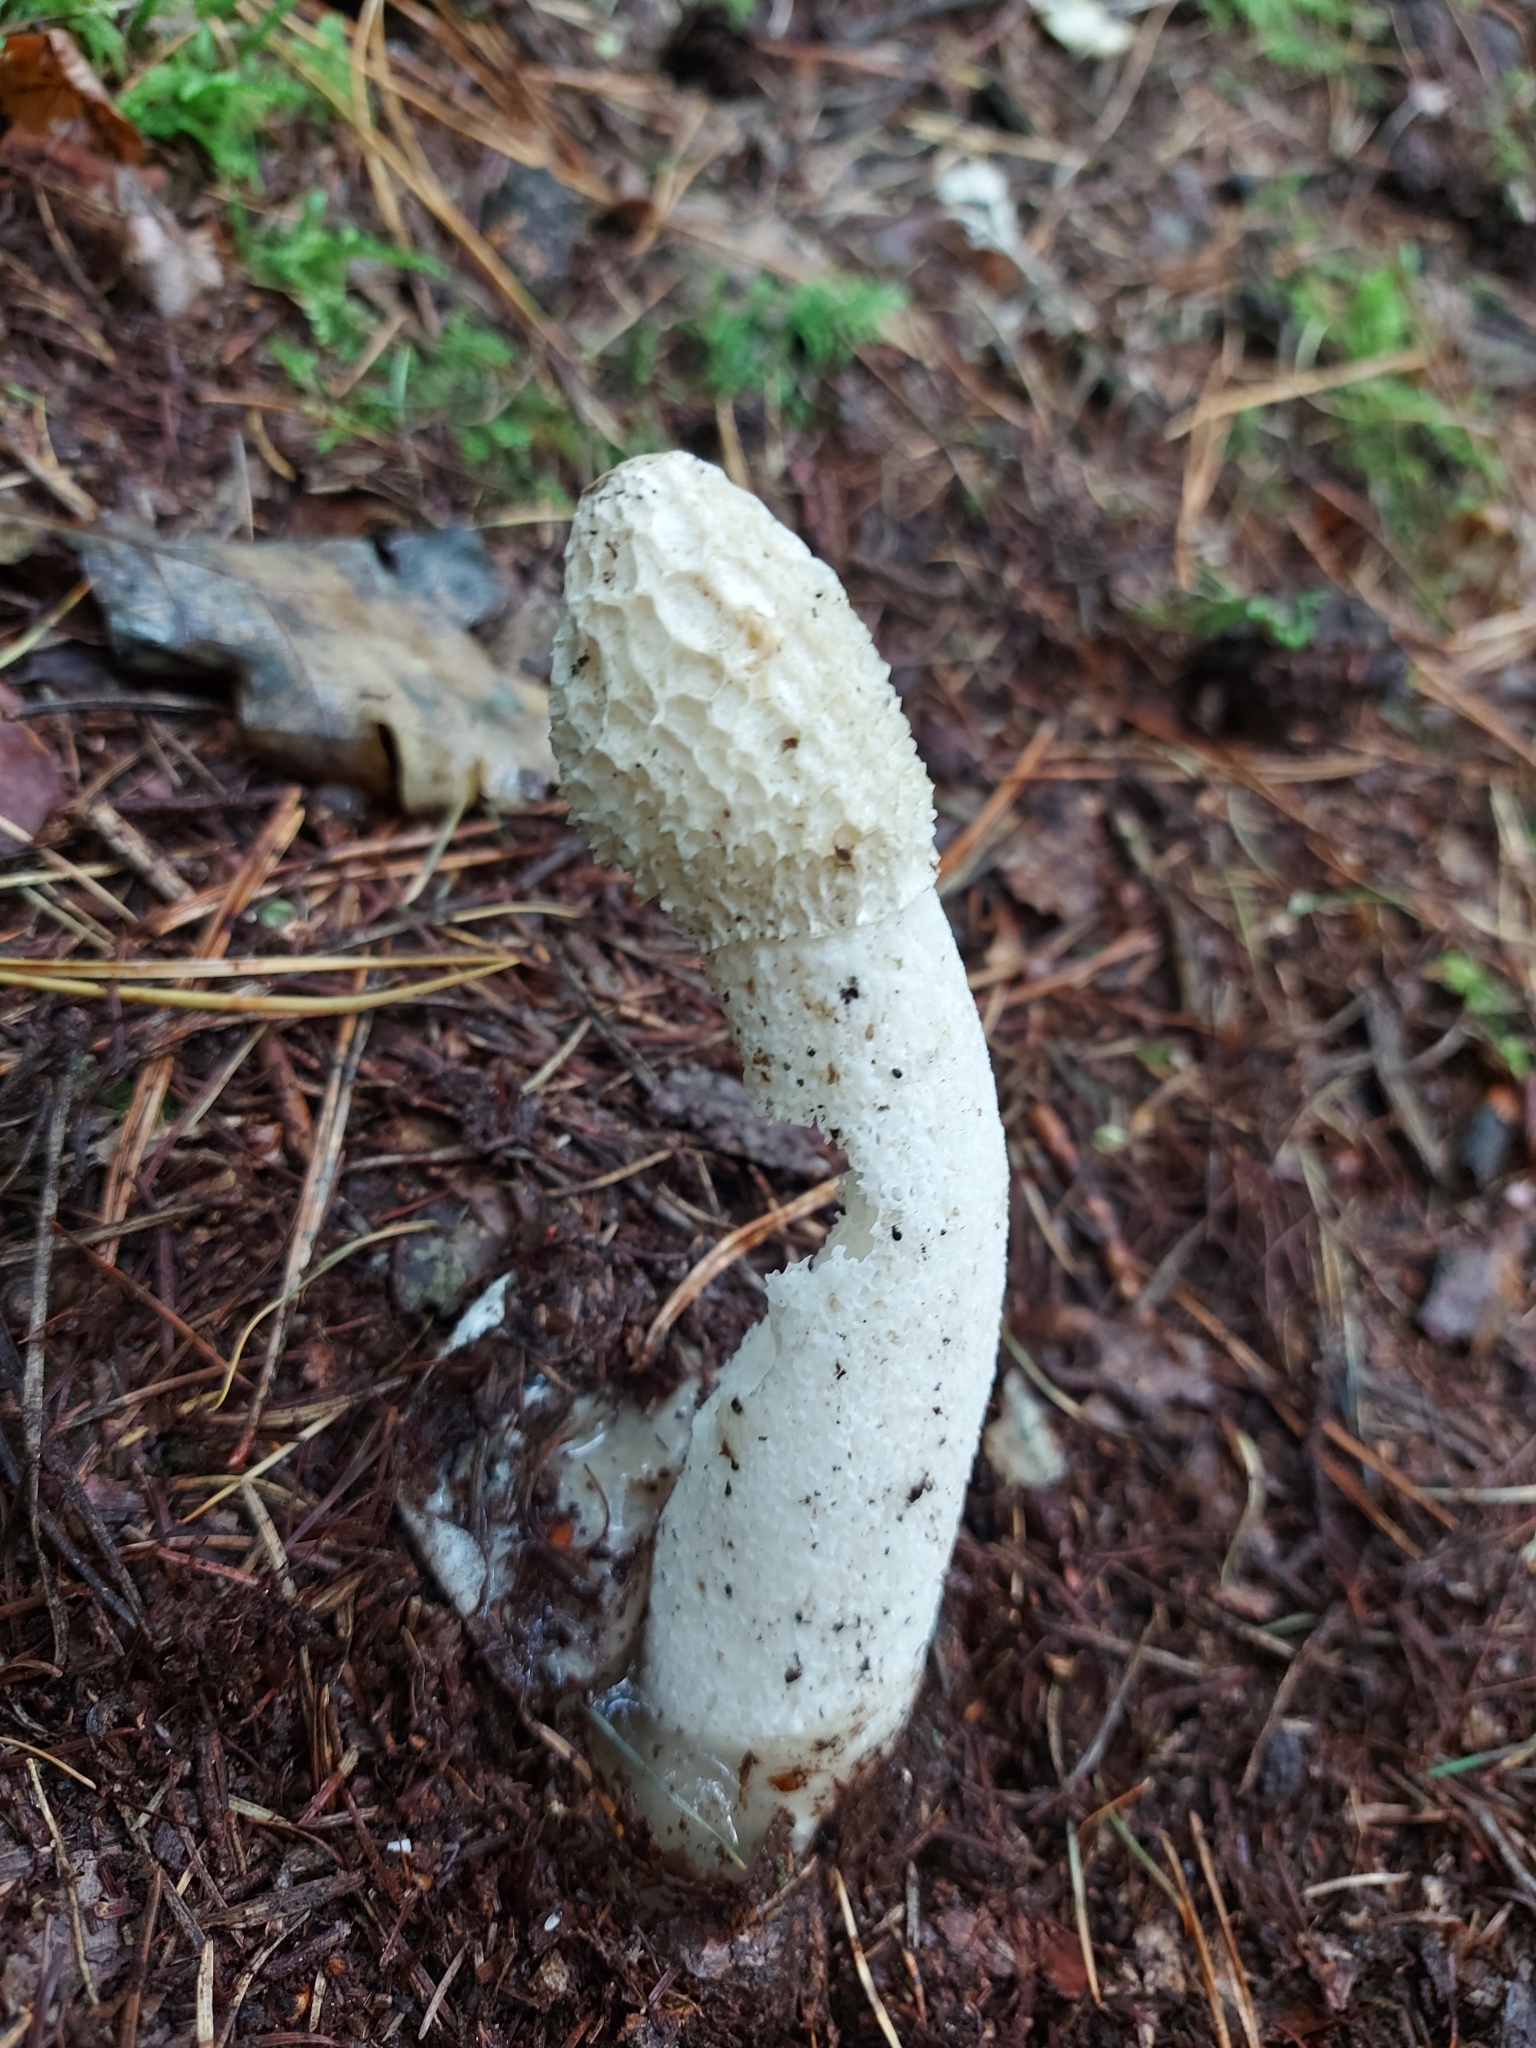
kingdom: Fungi
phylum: Basidiomycota
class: Agaricomycetes
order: Phallales
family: Phallaceae
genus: Phallus
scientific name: Phallus impudicus
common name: Common stinkhorn
